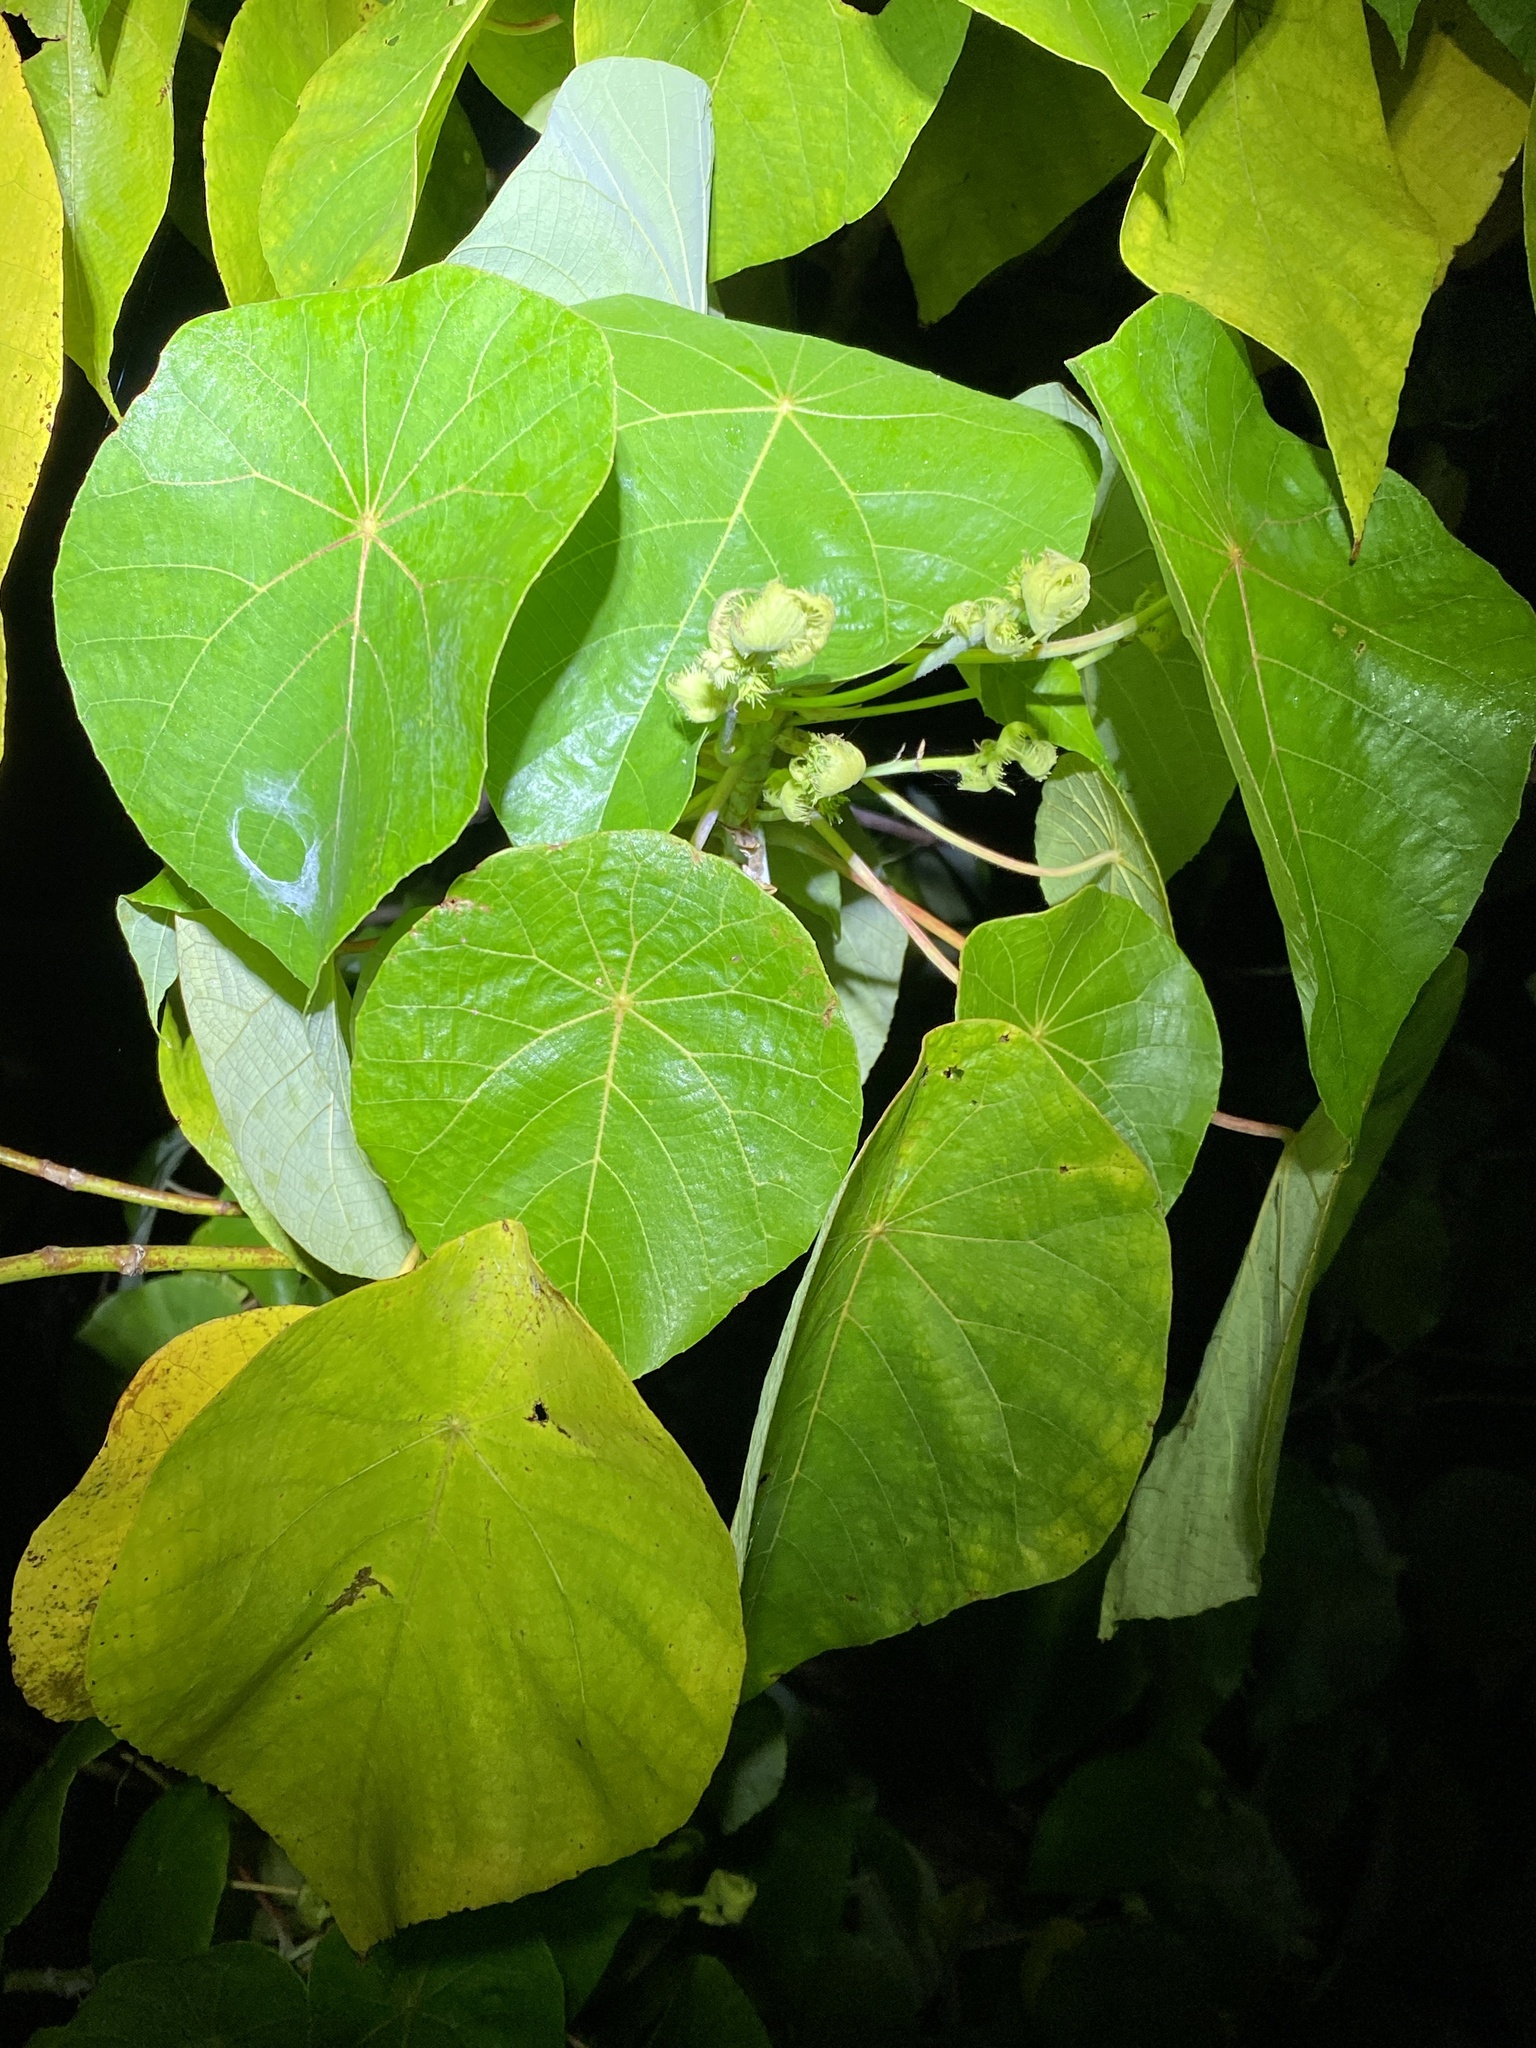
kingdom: Plantae
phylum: Tracheophyta
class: Magnoliopsida
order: Malpighiales
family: Euphorbiaceae
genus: Macaranga
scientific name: Macaranga tanarius
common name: Parasol leaf tree
